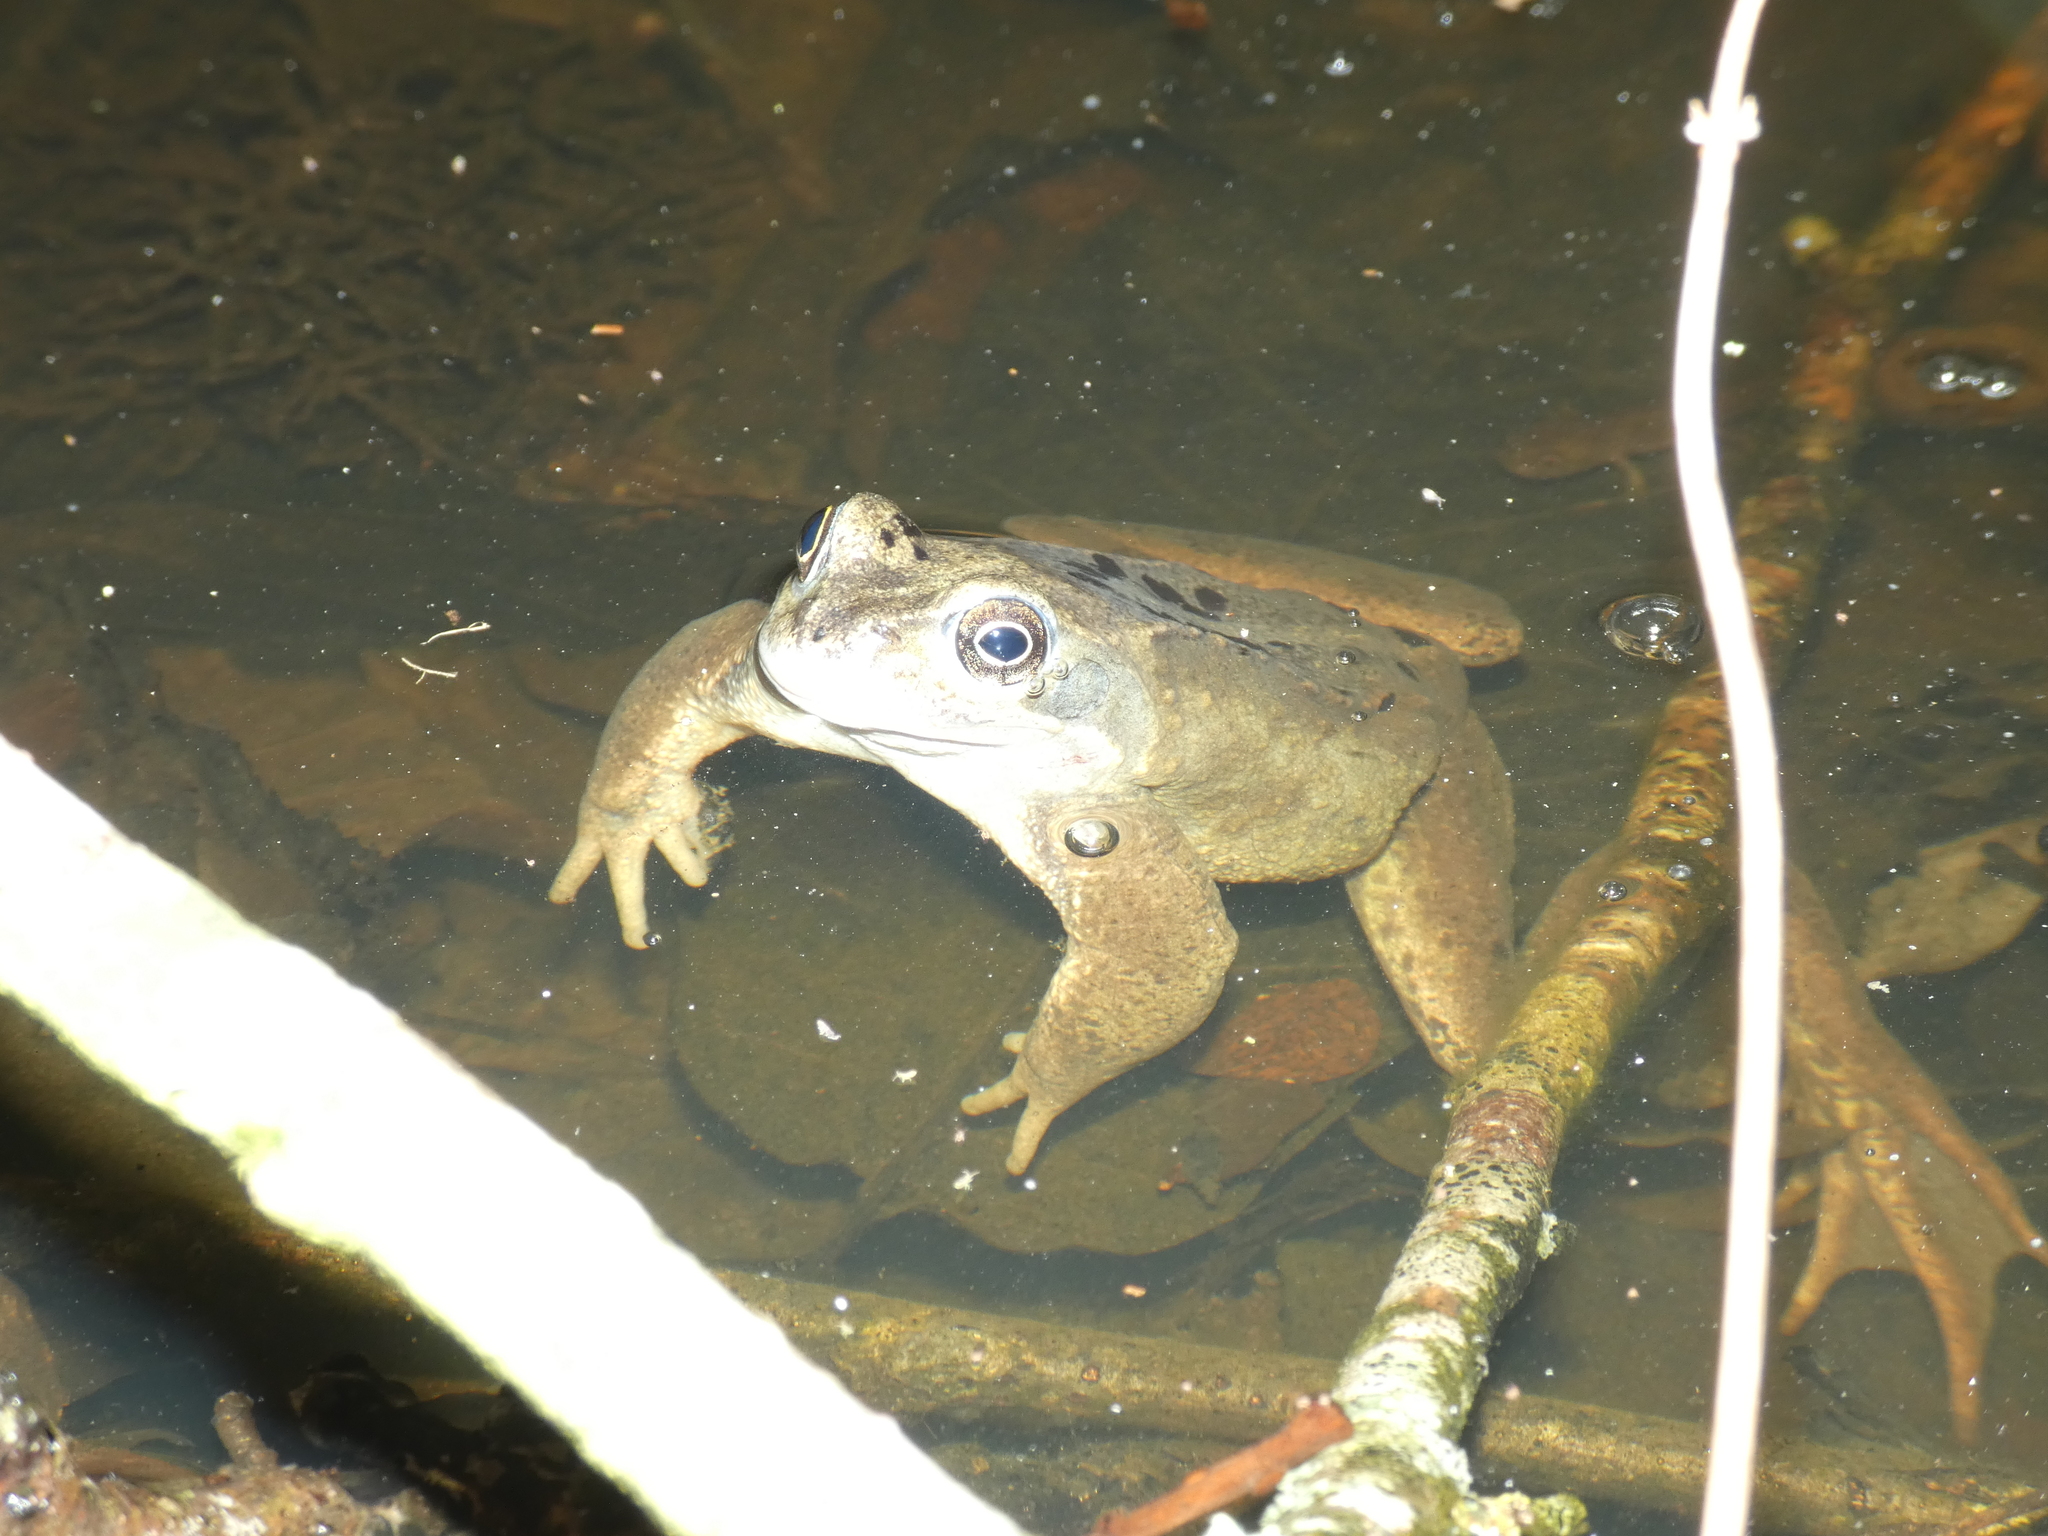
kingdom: Animalia
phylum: Chordata
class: Amphibia
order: Anura
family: Ranidae
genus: Rana
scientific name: Rana temporaria
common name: Common frog
